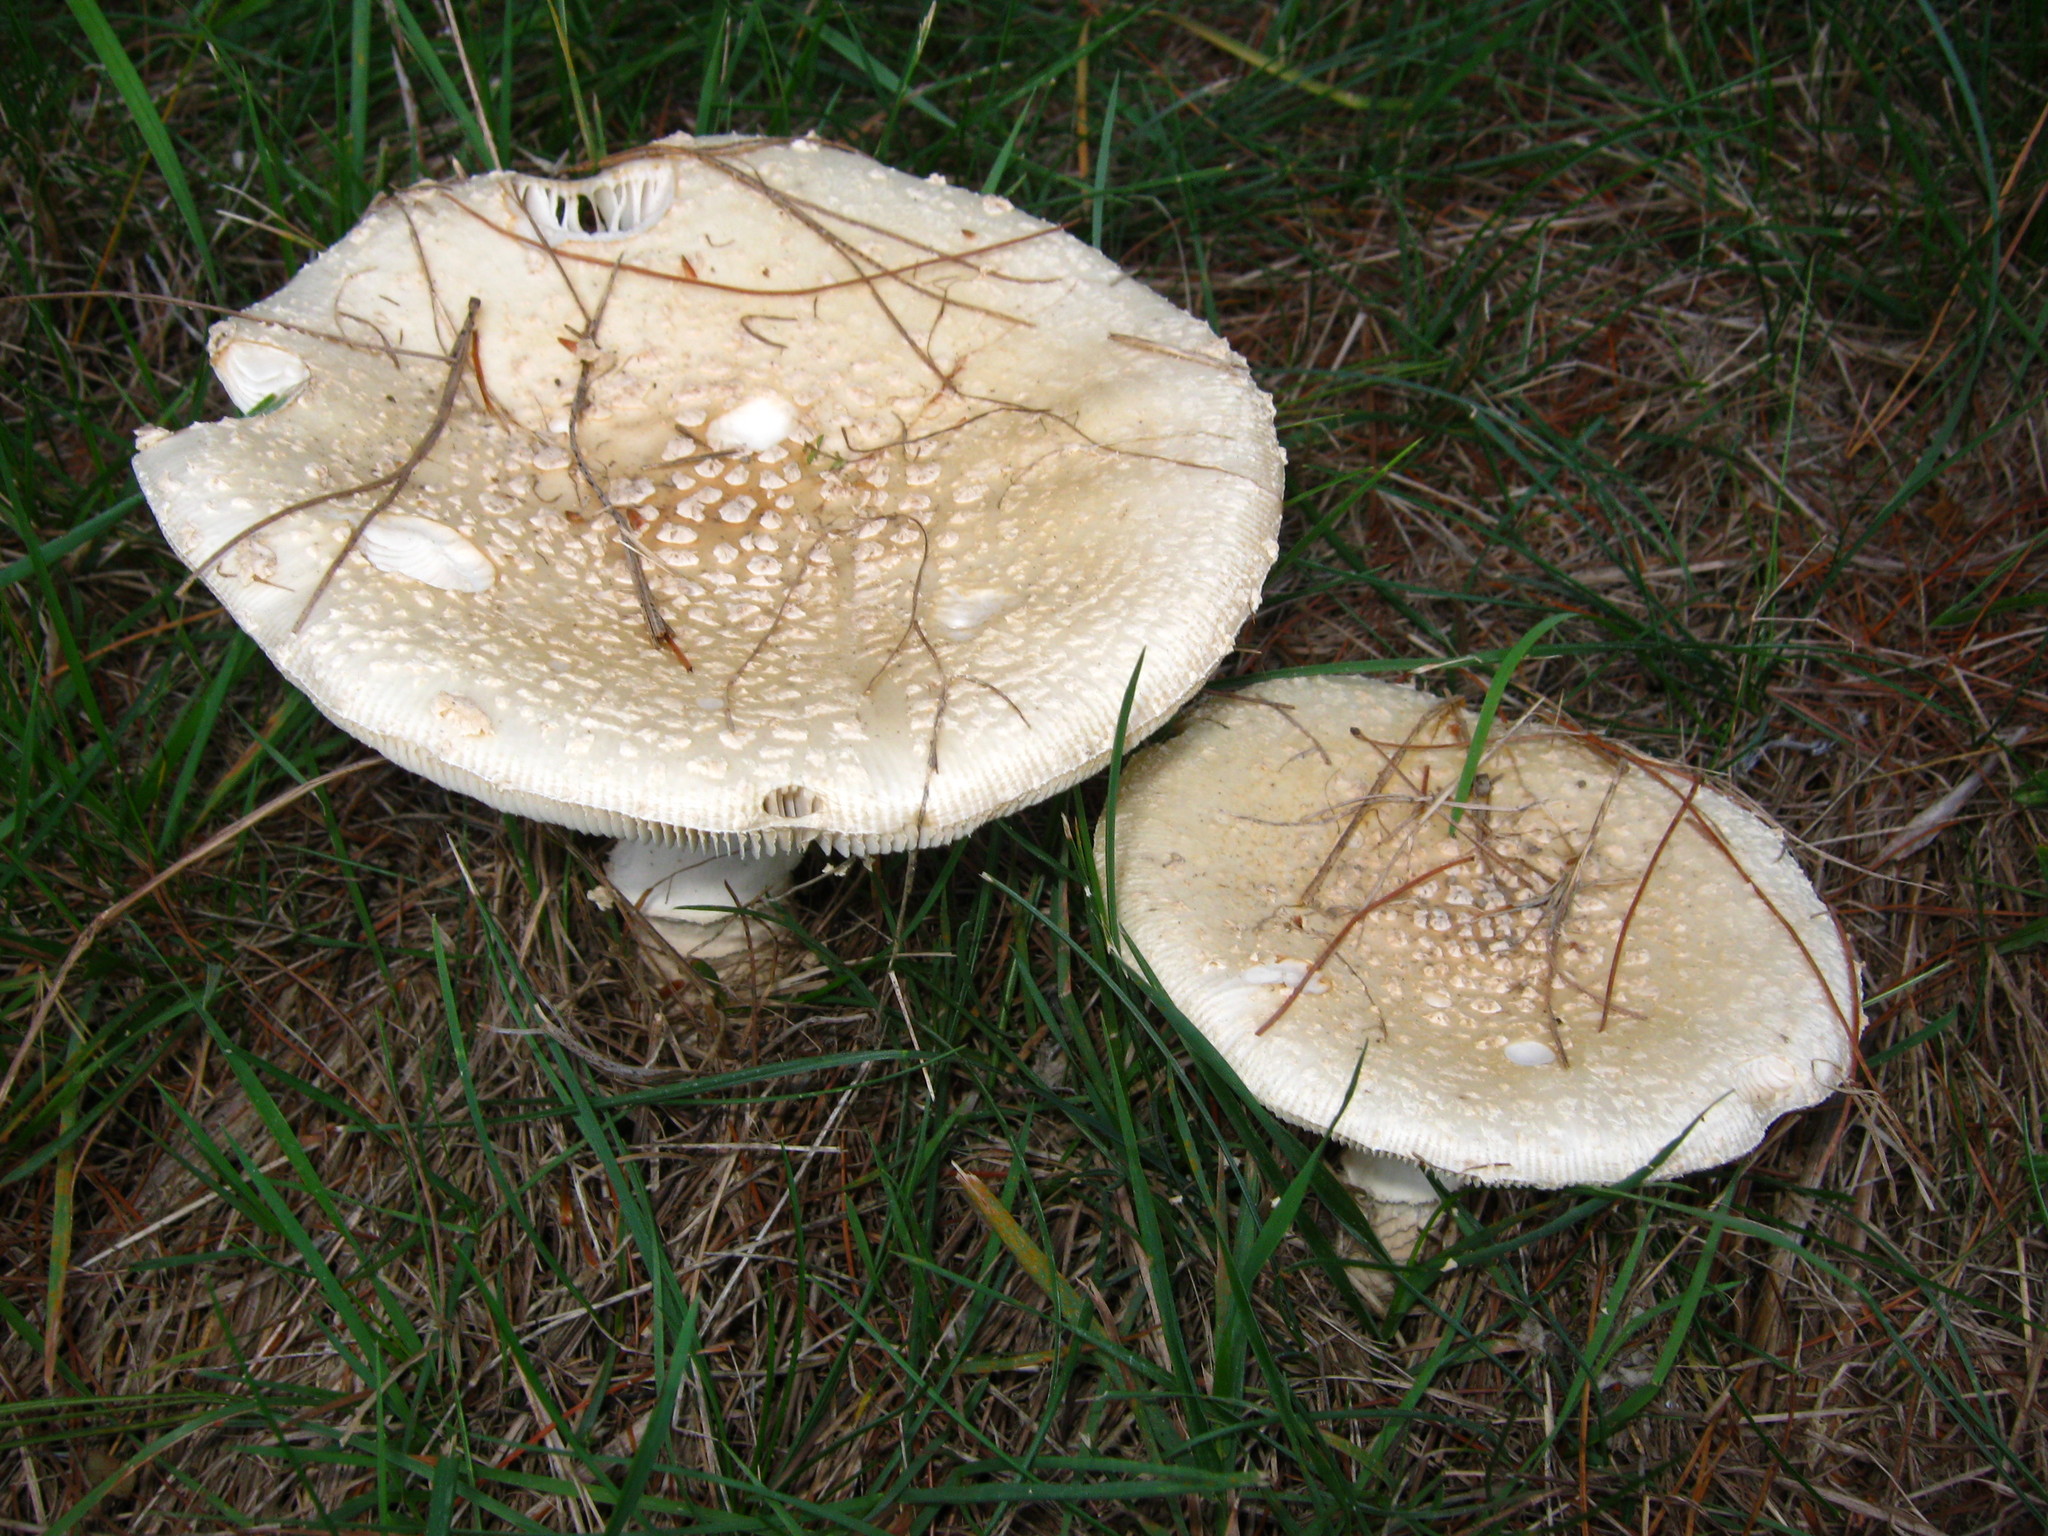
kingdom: Fungi
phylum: Basidiomycota
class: Agaricomycetes
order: Agaricales
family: Amanitaceae
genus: Amanita
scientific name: Amanita muscaria
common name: Fly agaric
